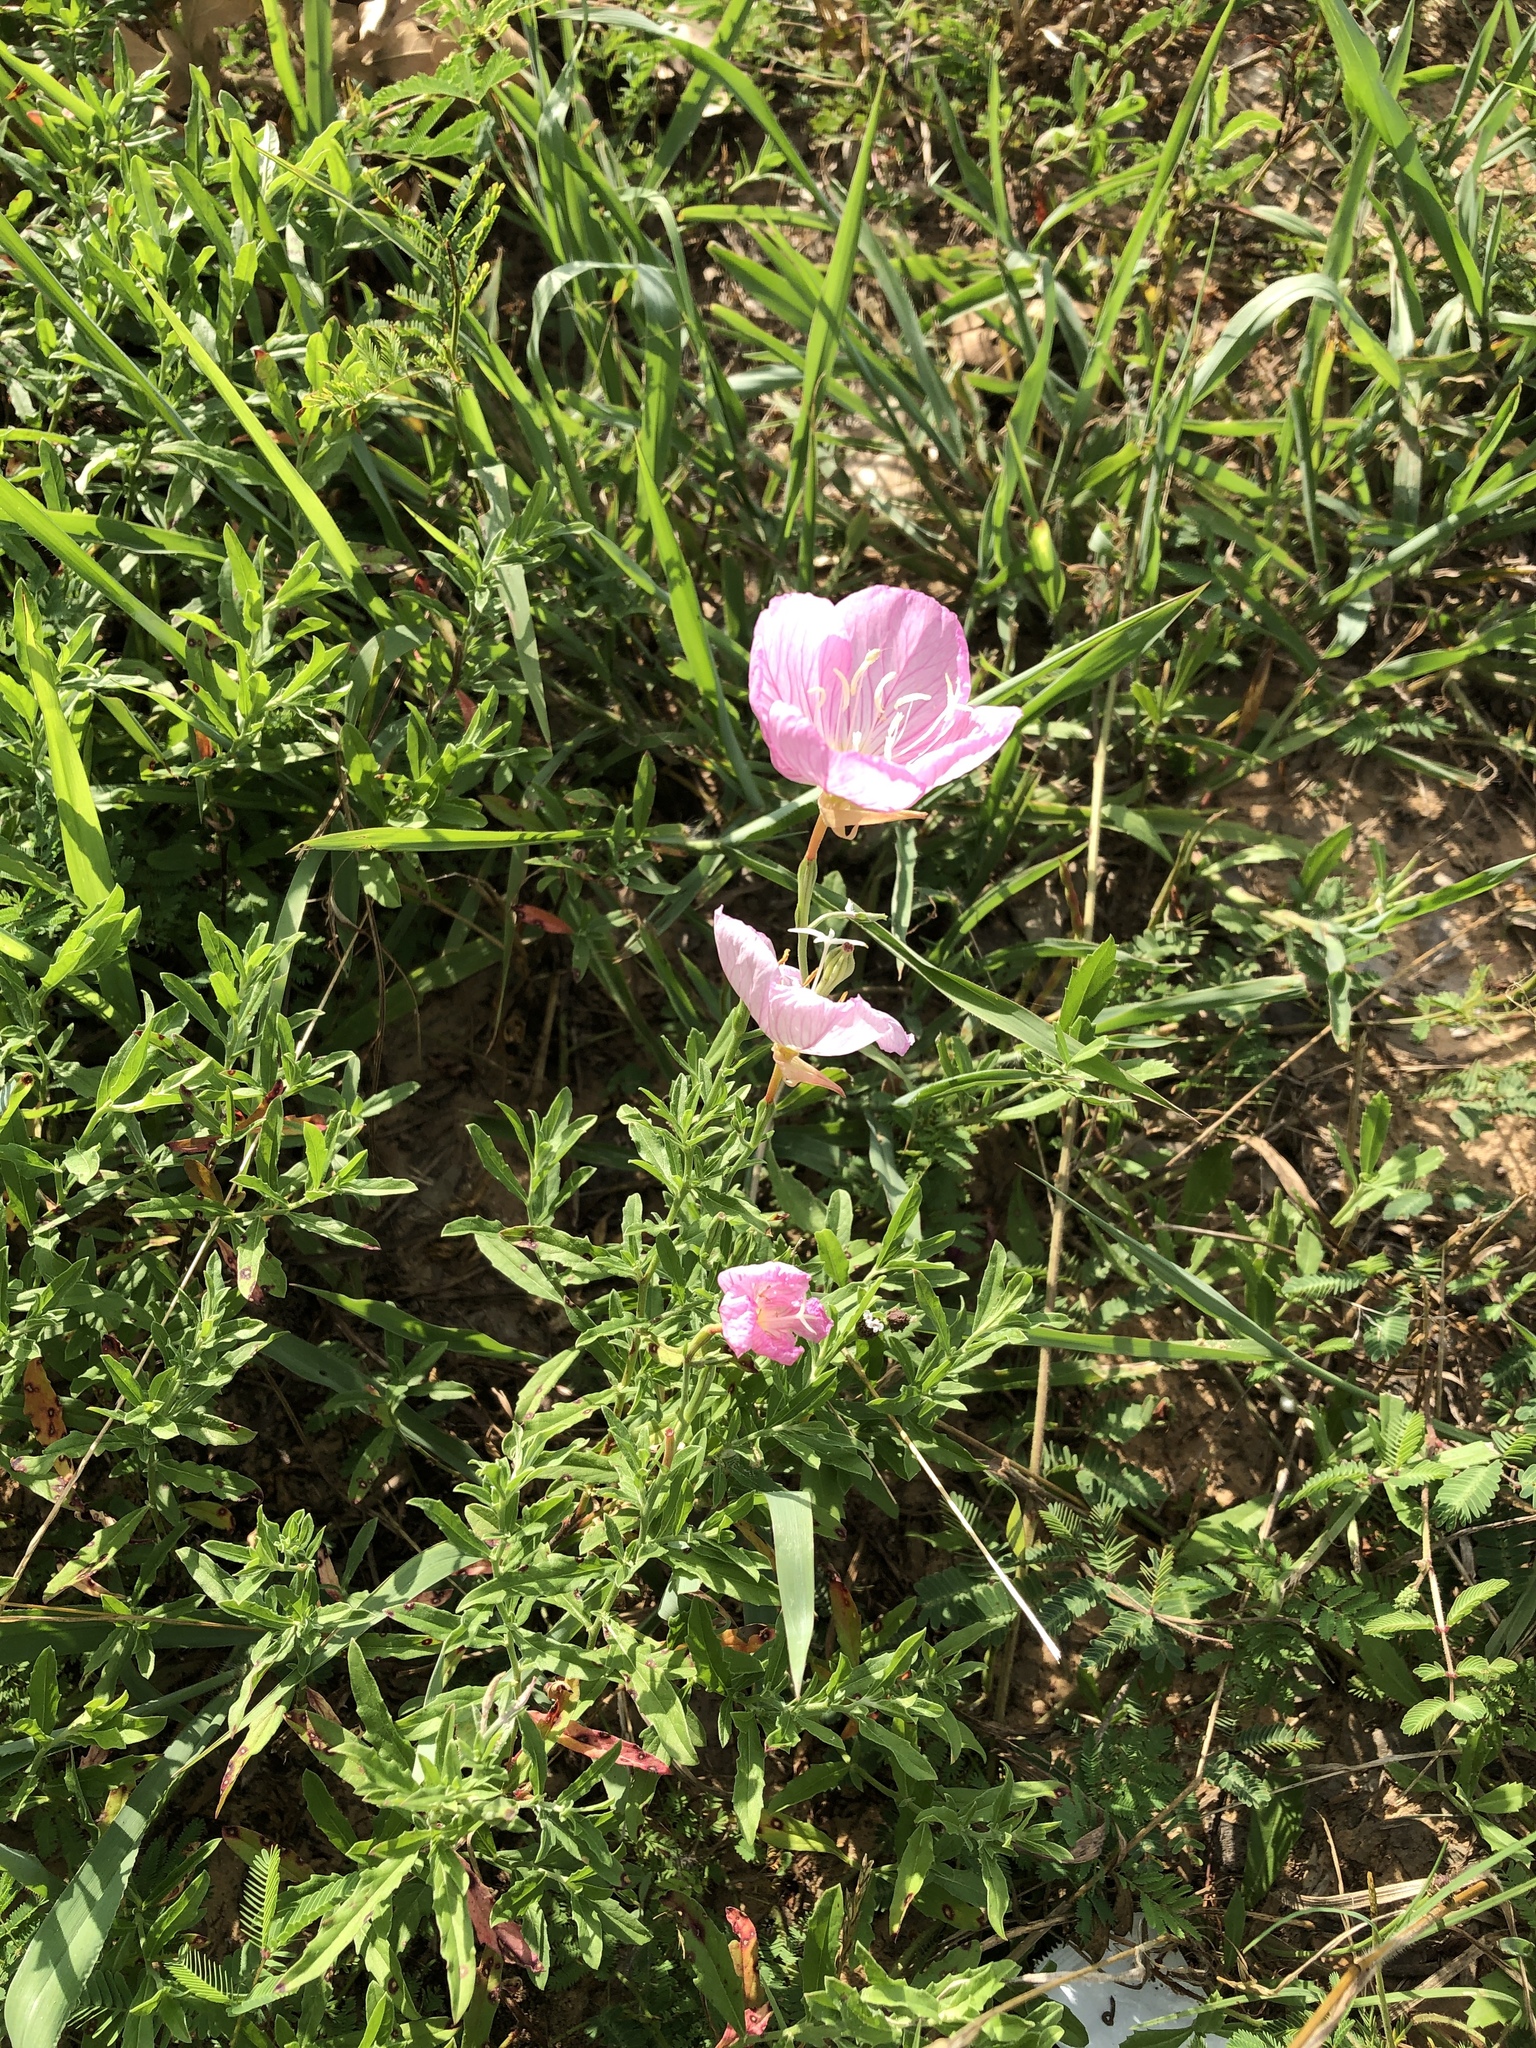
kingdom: Plantae
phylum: Tracheophyta
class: Magnoliopsida
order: Myrtales
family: Onagraceae
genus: Oenothera
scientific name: Oenothera speciosa
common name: White evening-primrose
